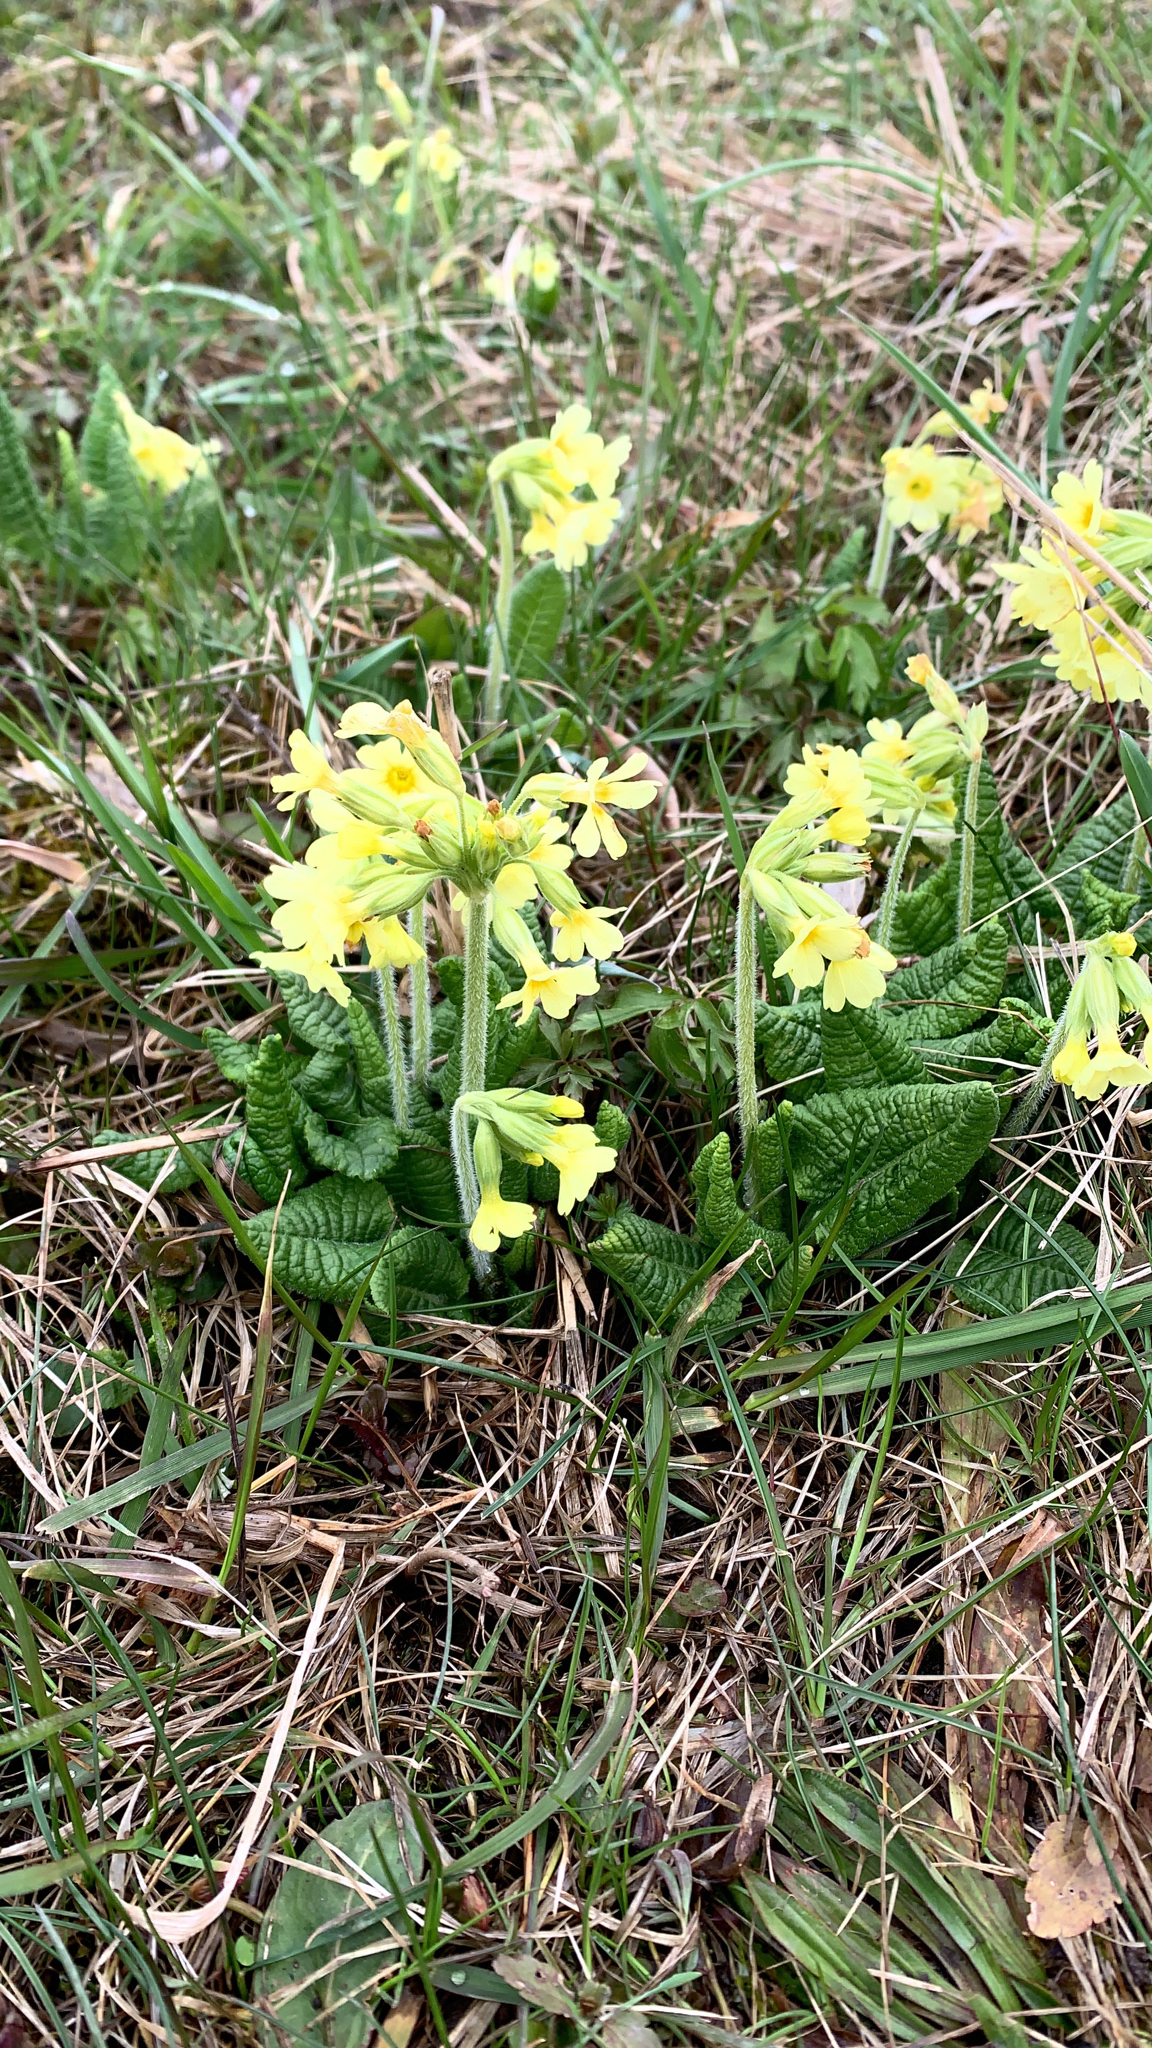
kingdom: Plantae
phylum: Tracheophyta
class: Magnoliopsida
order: Ericales
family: Primulaceae
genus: Primula
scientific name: Primula elatior
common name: Oxlip
